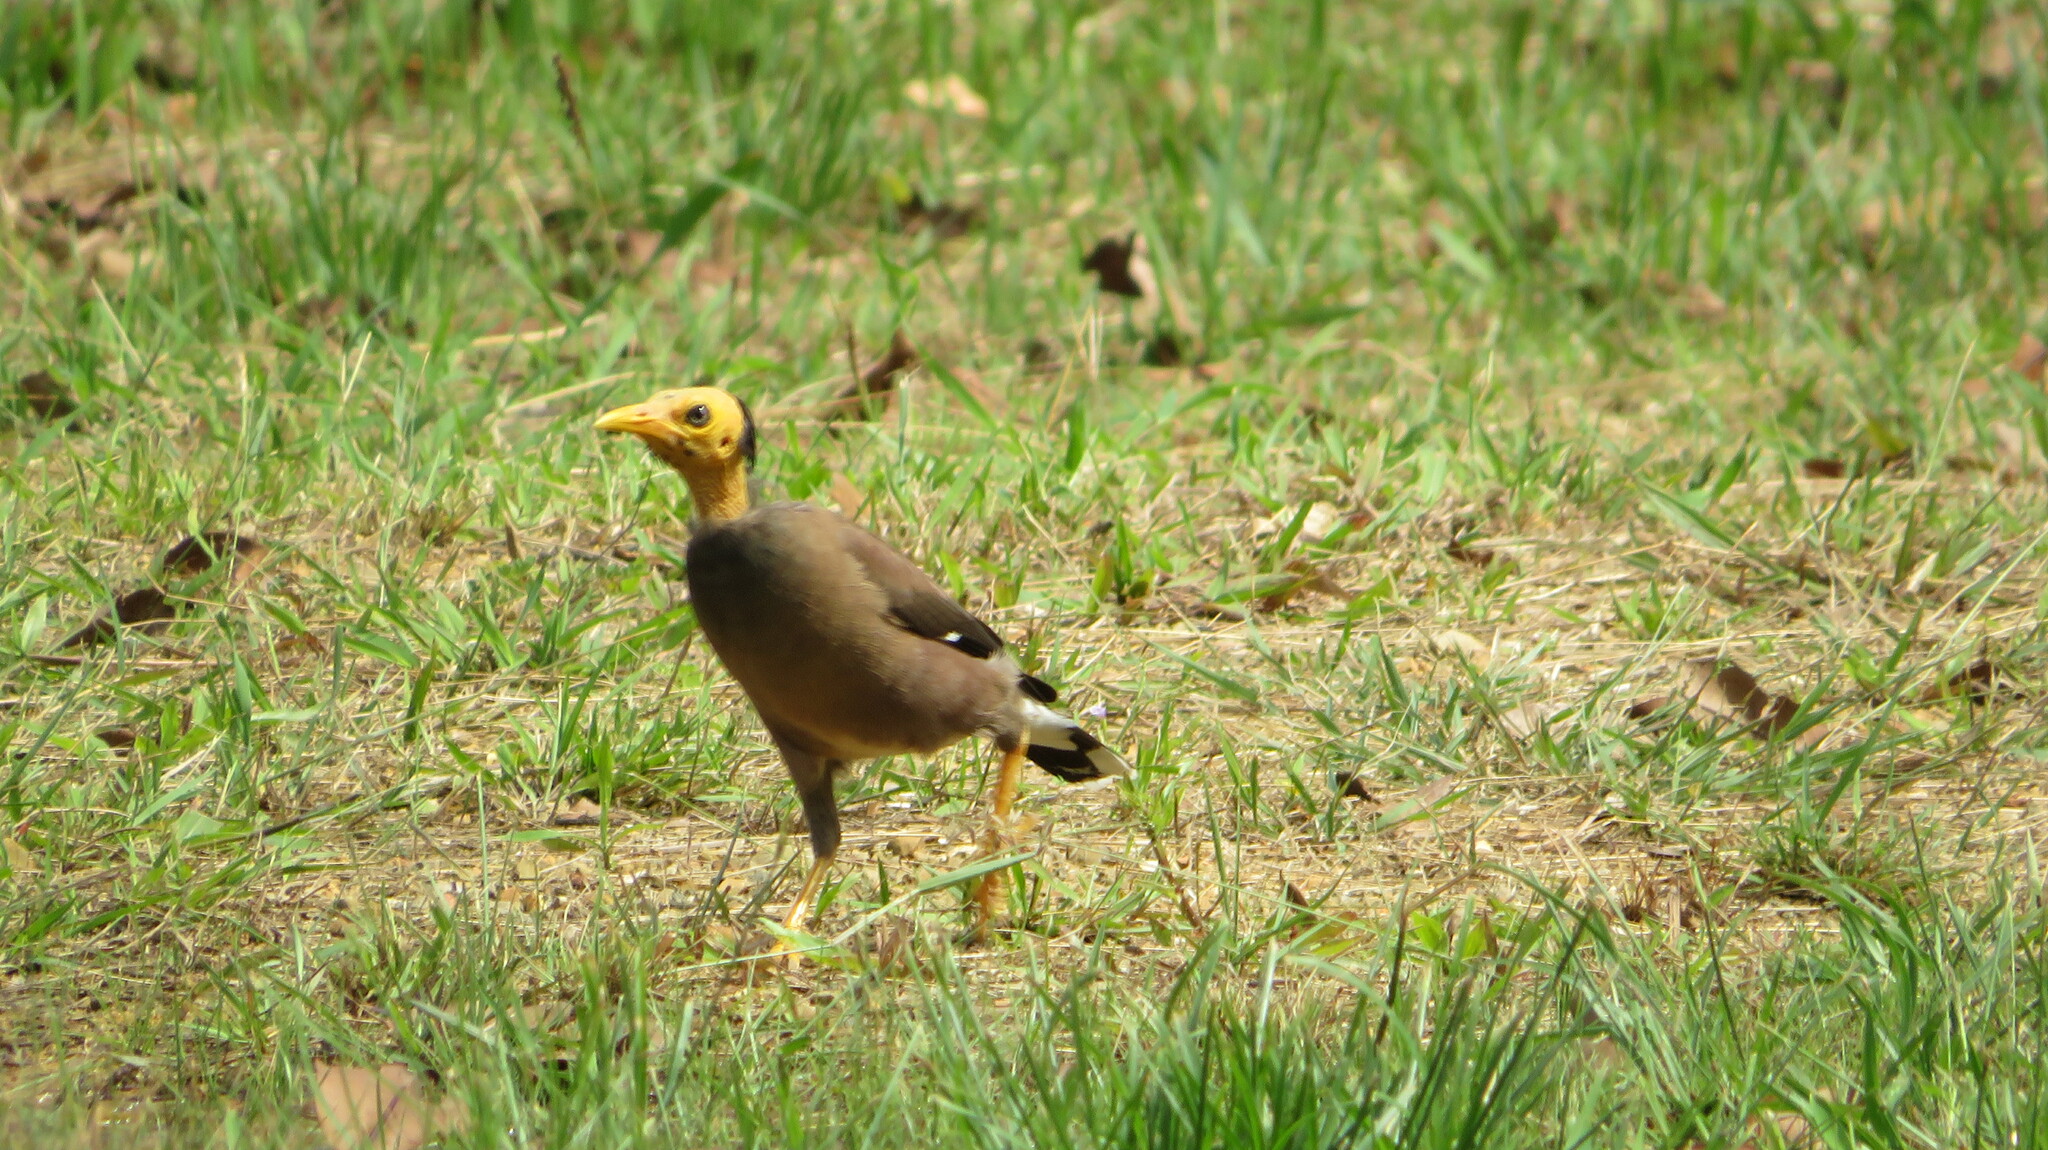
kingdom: Animalia
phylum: Chordata
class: Aves
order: Passeriformes
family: Sturnidae
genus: Acridotheres
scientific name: Acridotheres tristis
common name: Common myna
